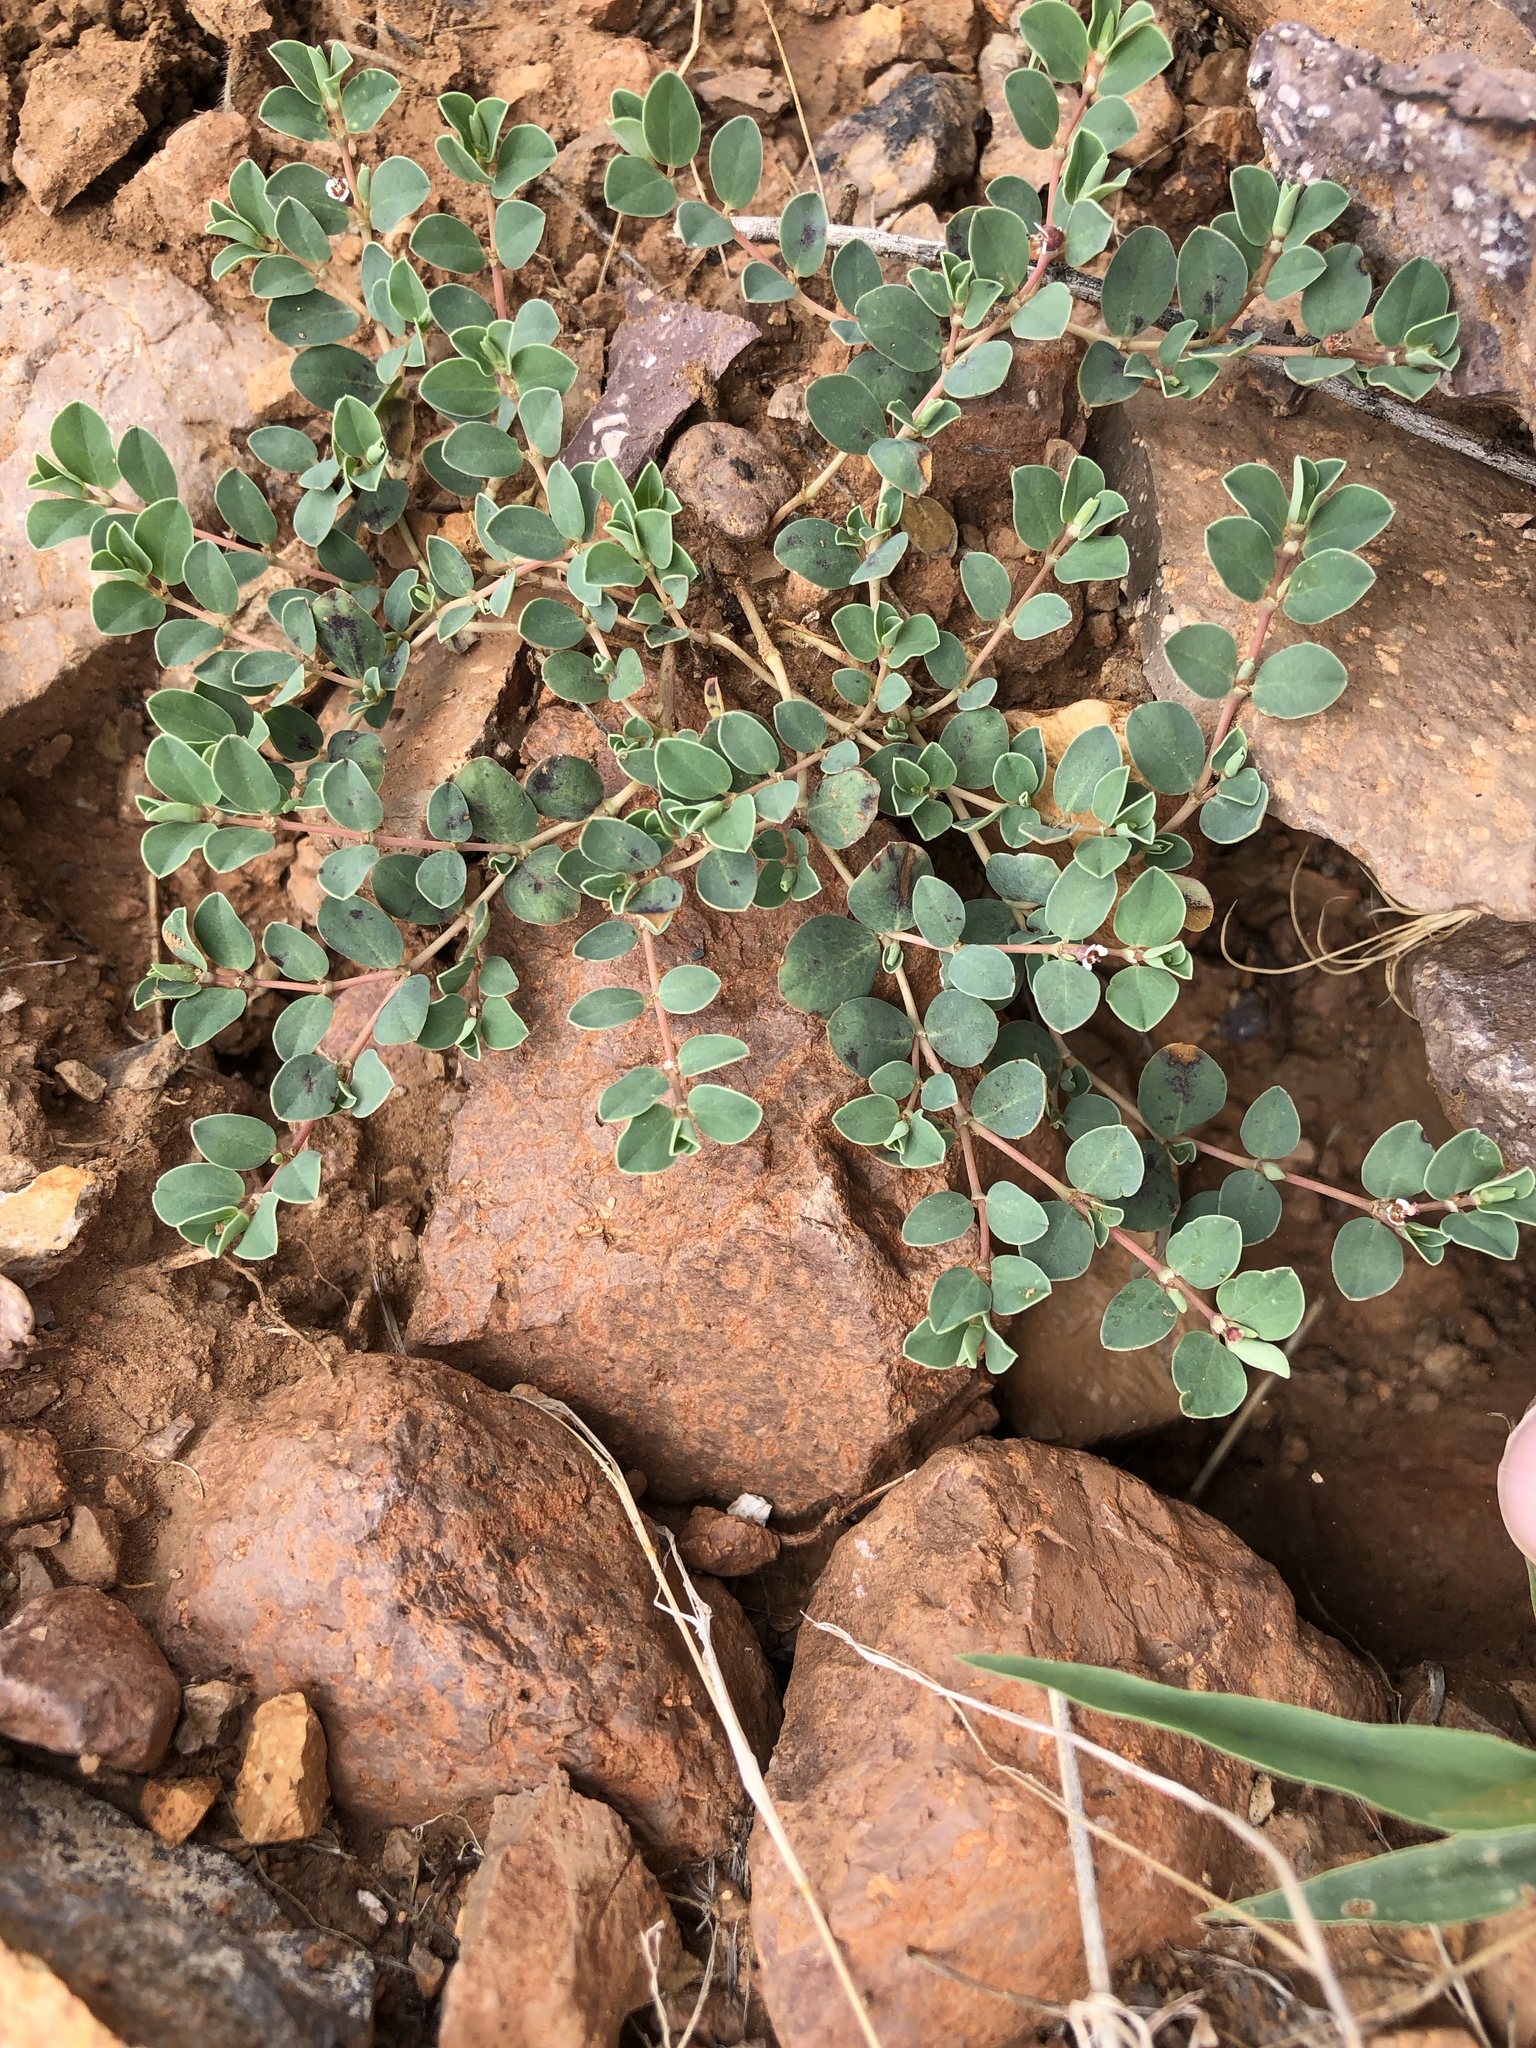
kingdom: Plantae
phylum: Tracheophyta
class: Magnoliopsida
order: Malpighiales
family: Euphorbiaceae
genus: Euphorbia
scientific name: Euphorbia albomarginata
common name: Whitemargin sandmat
